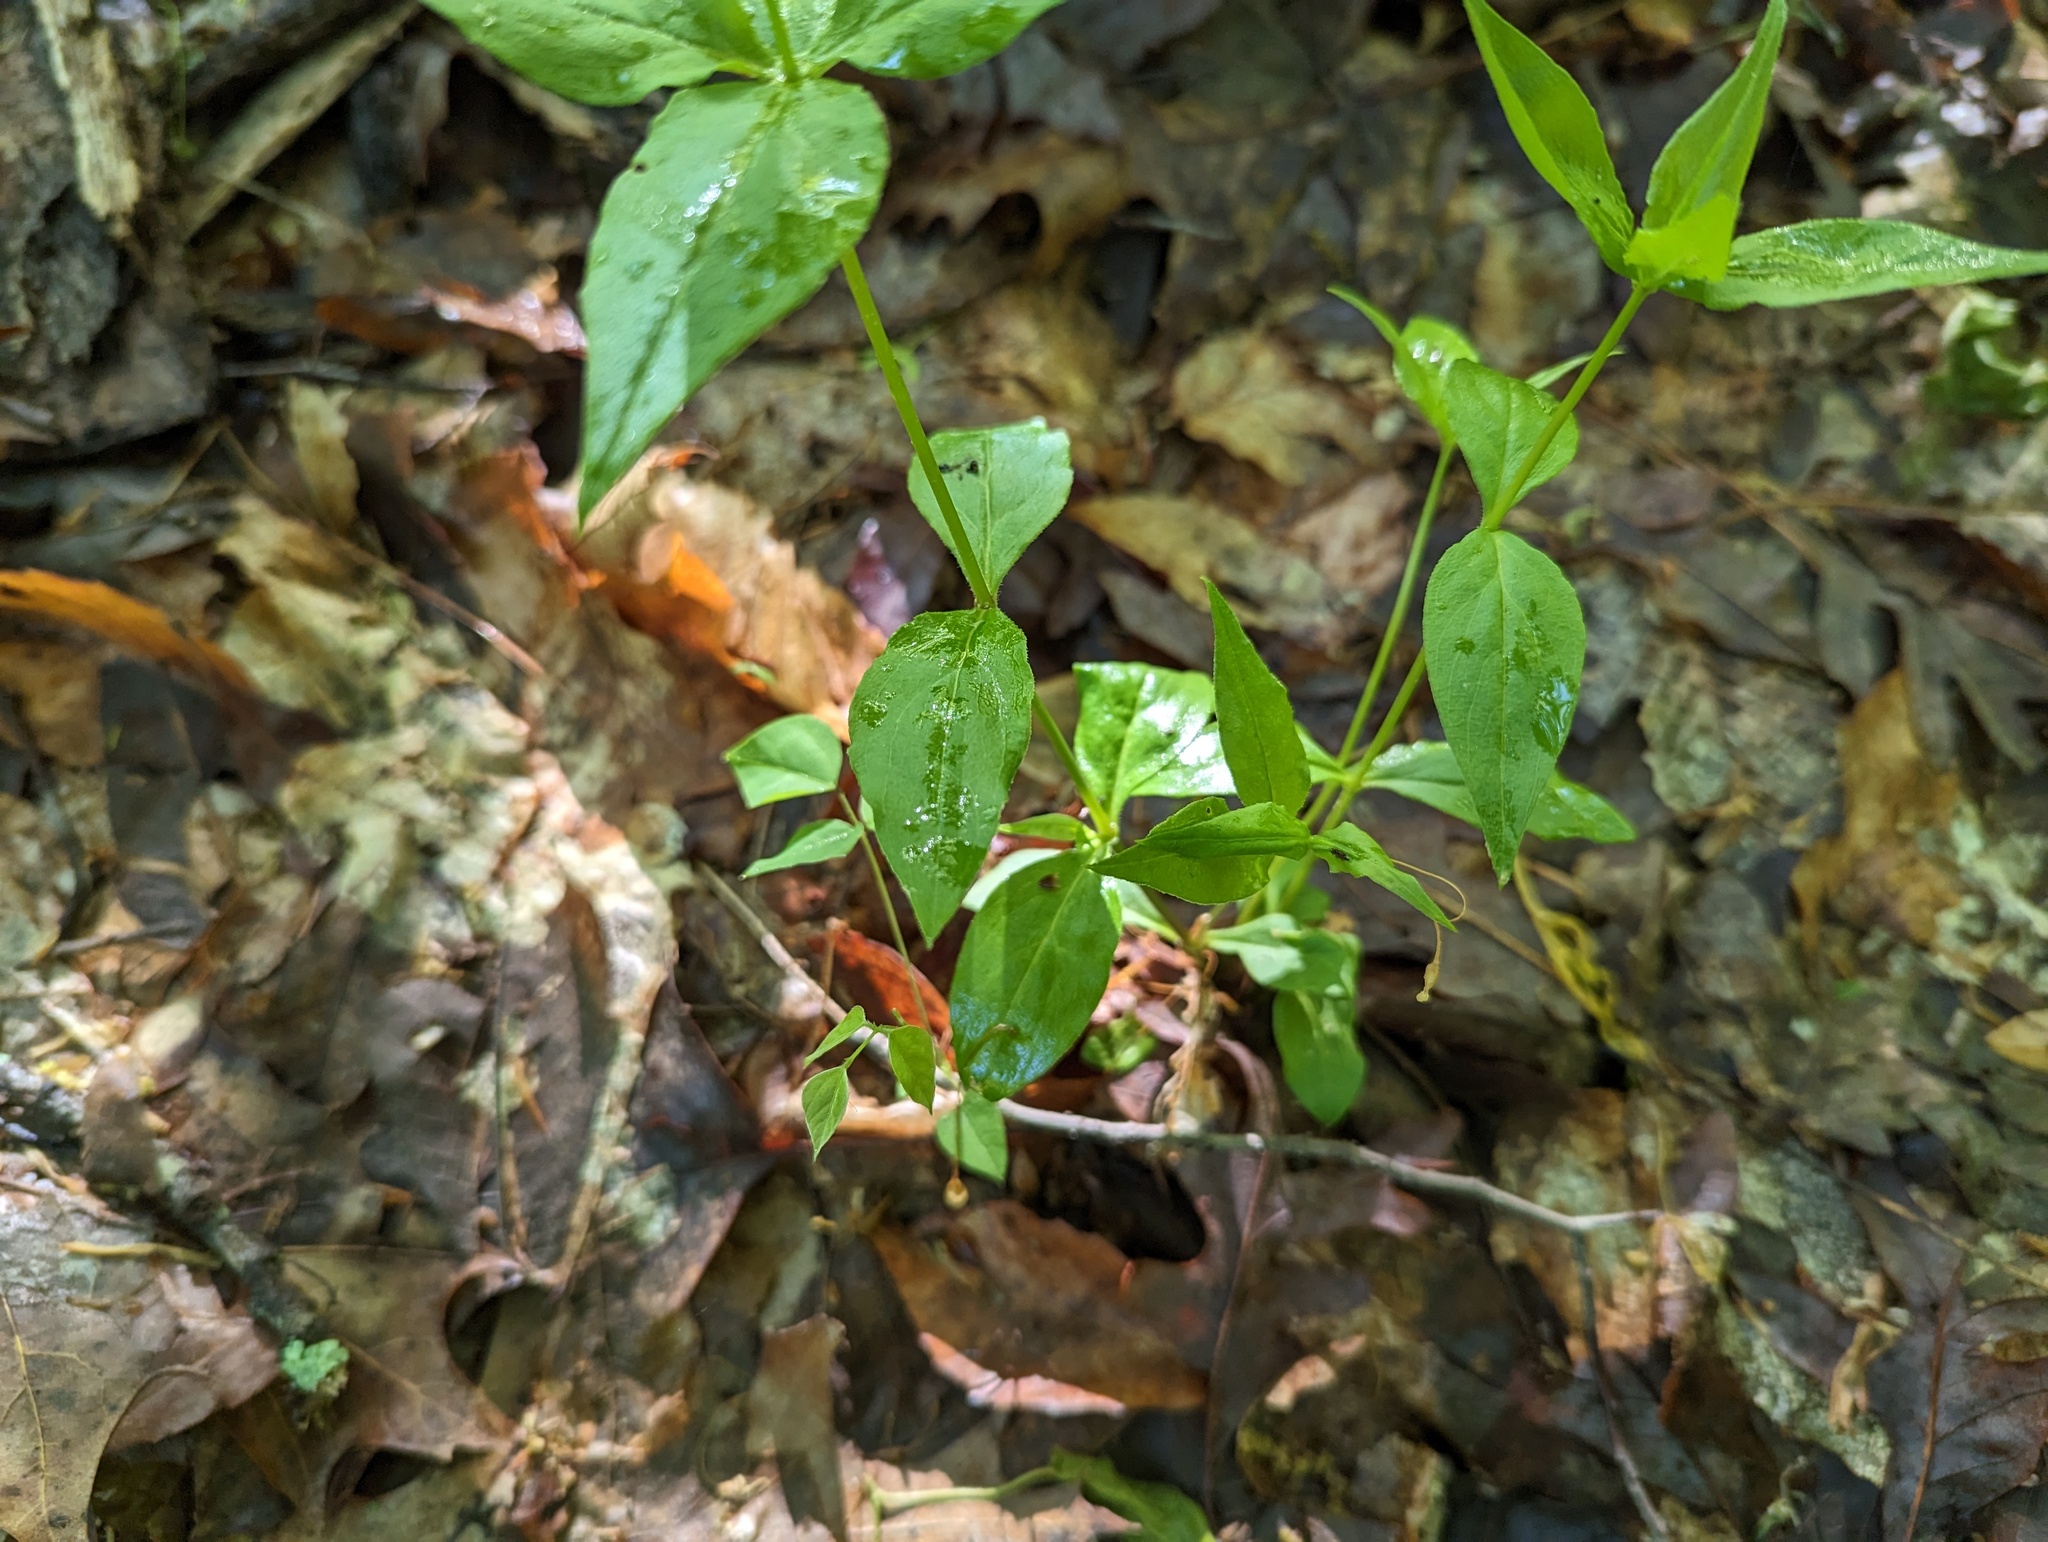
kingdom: Plantae
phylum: Tracheophyta
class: Magnoliopsida
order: Caryophyllales
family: Caryophyllaceae
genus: Silene
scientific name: Silene stellata
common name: Starry campion
